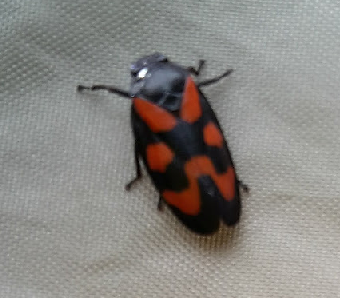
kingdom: Animalia
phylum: Arthropoda
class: Insecta
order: Hemiptera
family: Cercopidae
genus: Cercopis
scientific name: Cercopis vulnerata
